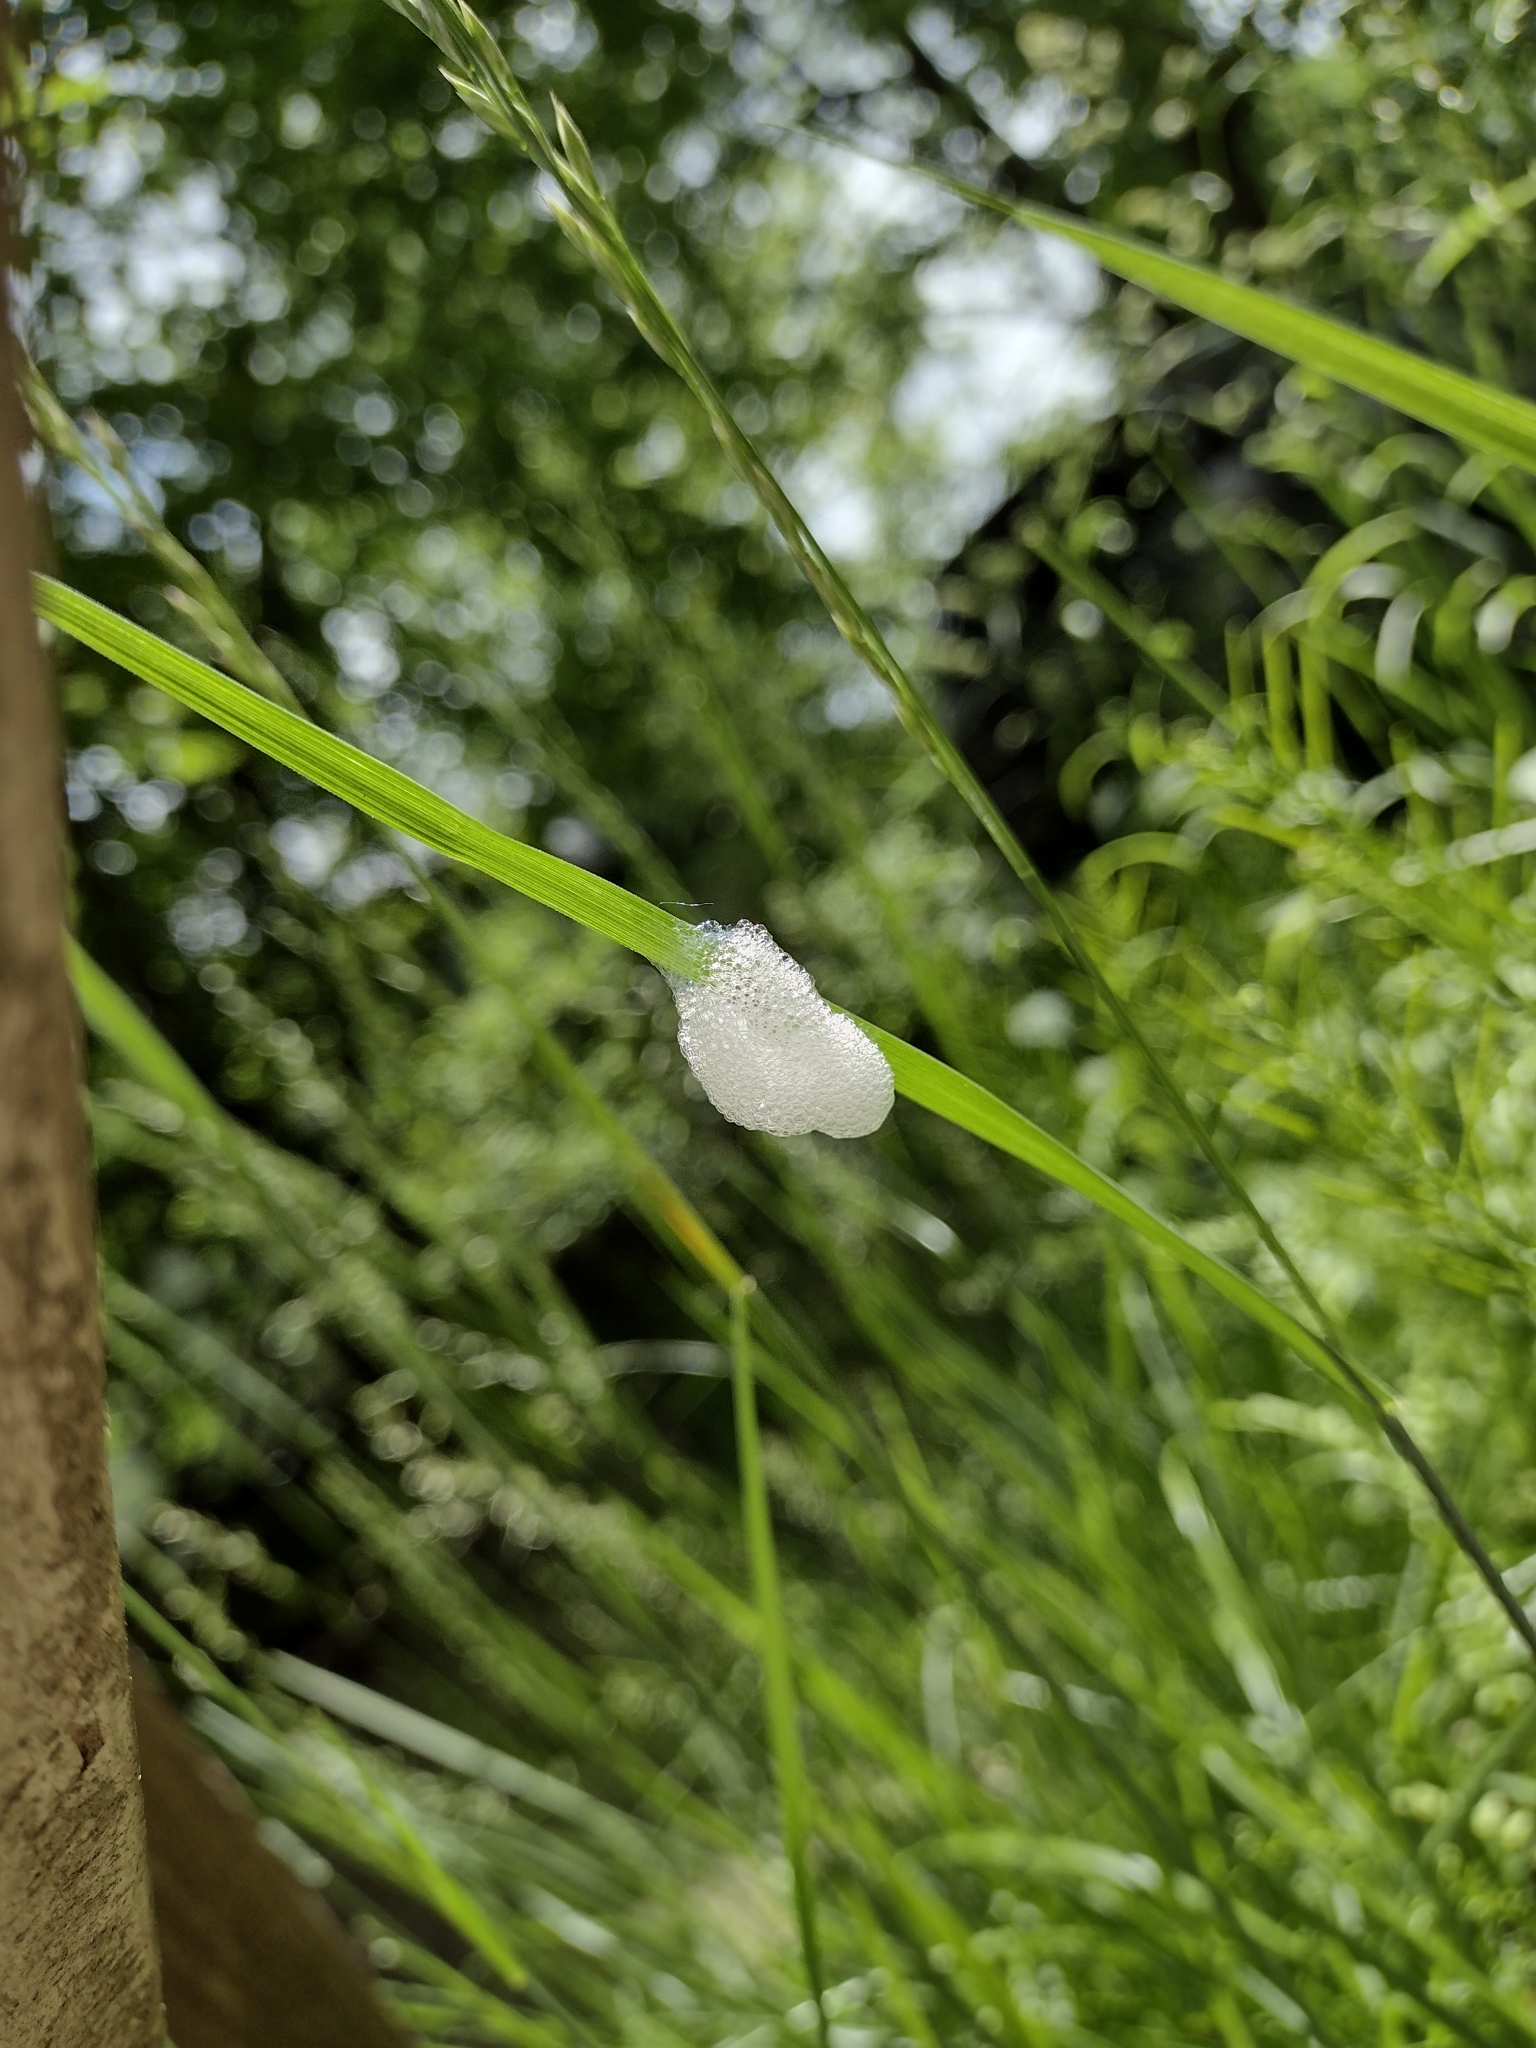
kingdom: Animalia
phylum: Arthropoda
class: Insecta
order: Hemiptera
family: Aphrophoridae
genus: Philaenus
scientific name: Philaenus spumarius
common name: Meadow spittlebug
